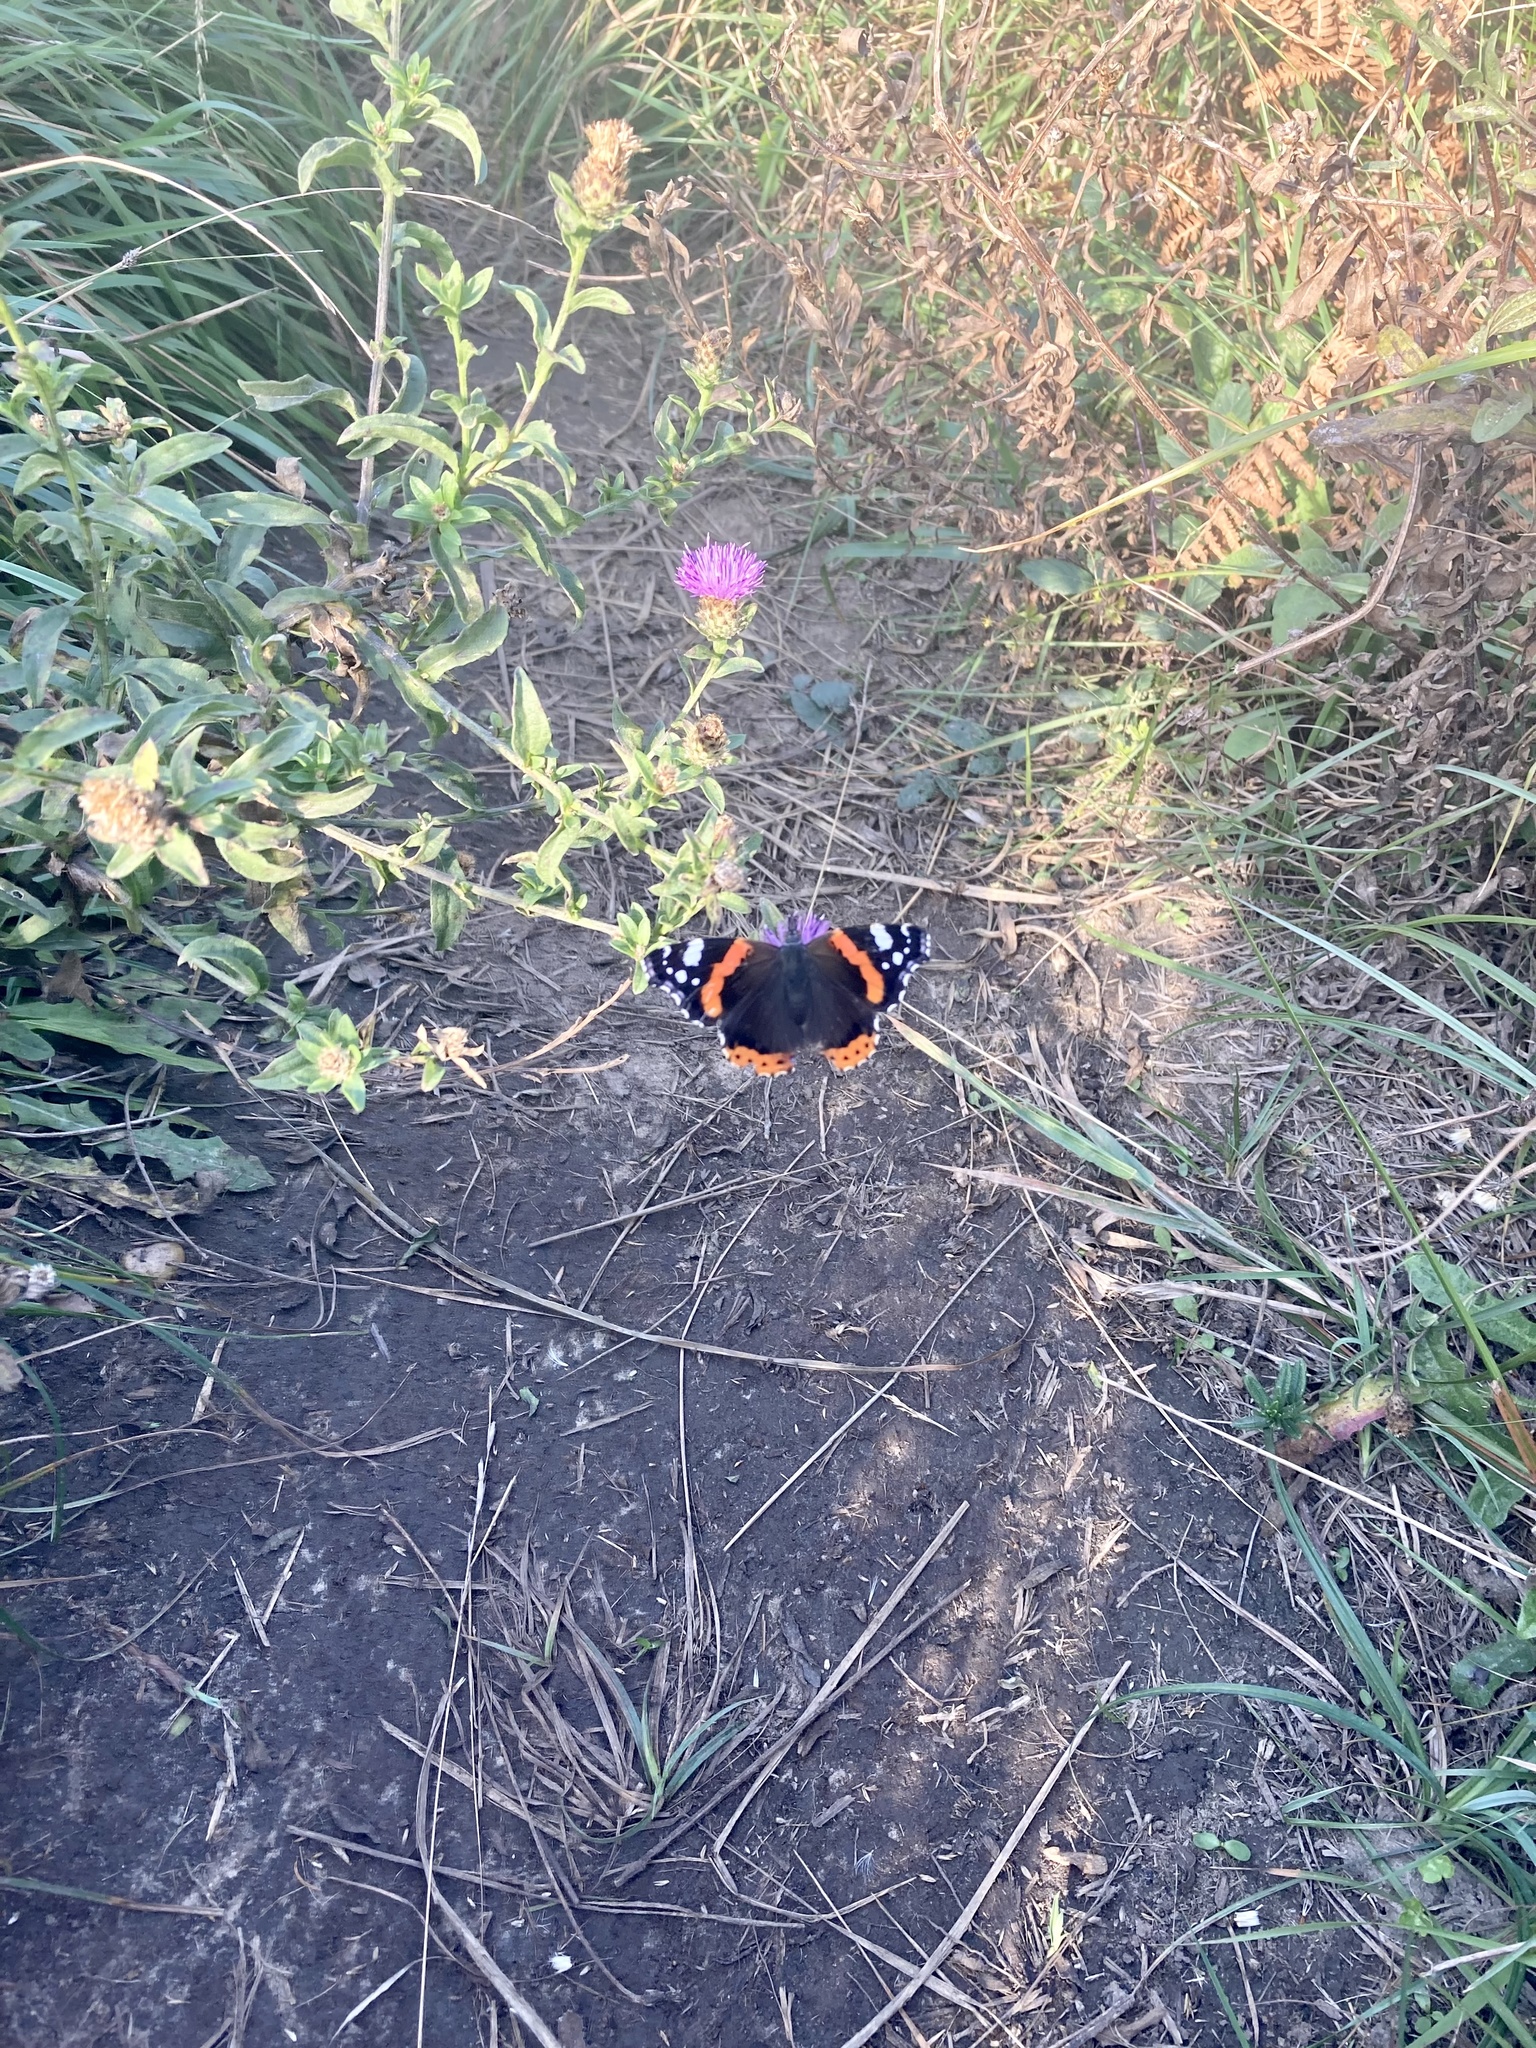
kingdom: Animalia
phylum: Arthropoda
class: Insecta
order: Lepidoptera
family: Nymphalidae
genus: Vanessa
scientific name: Vanessa atalanta
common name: Red admiral
